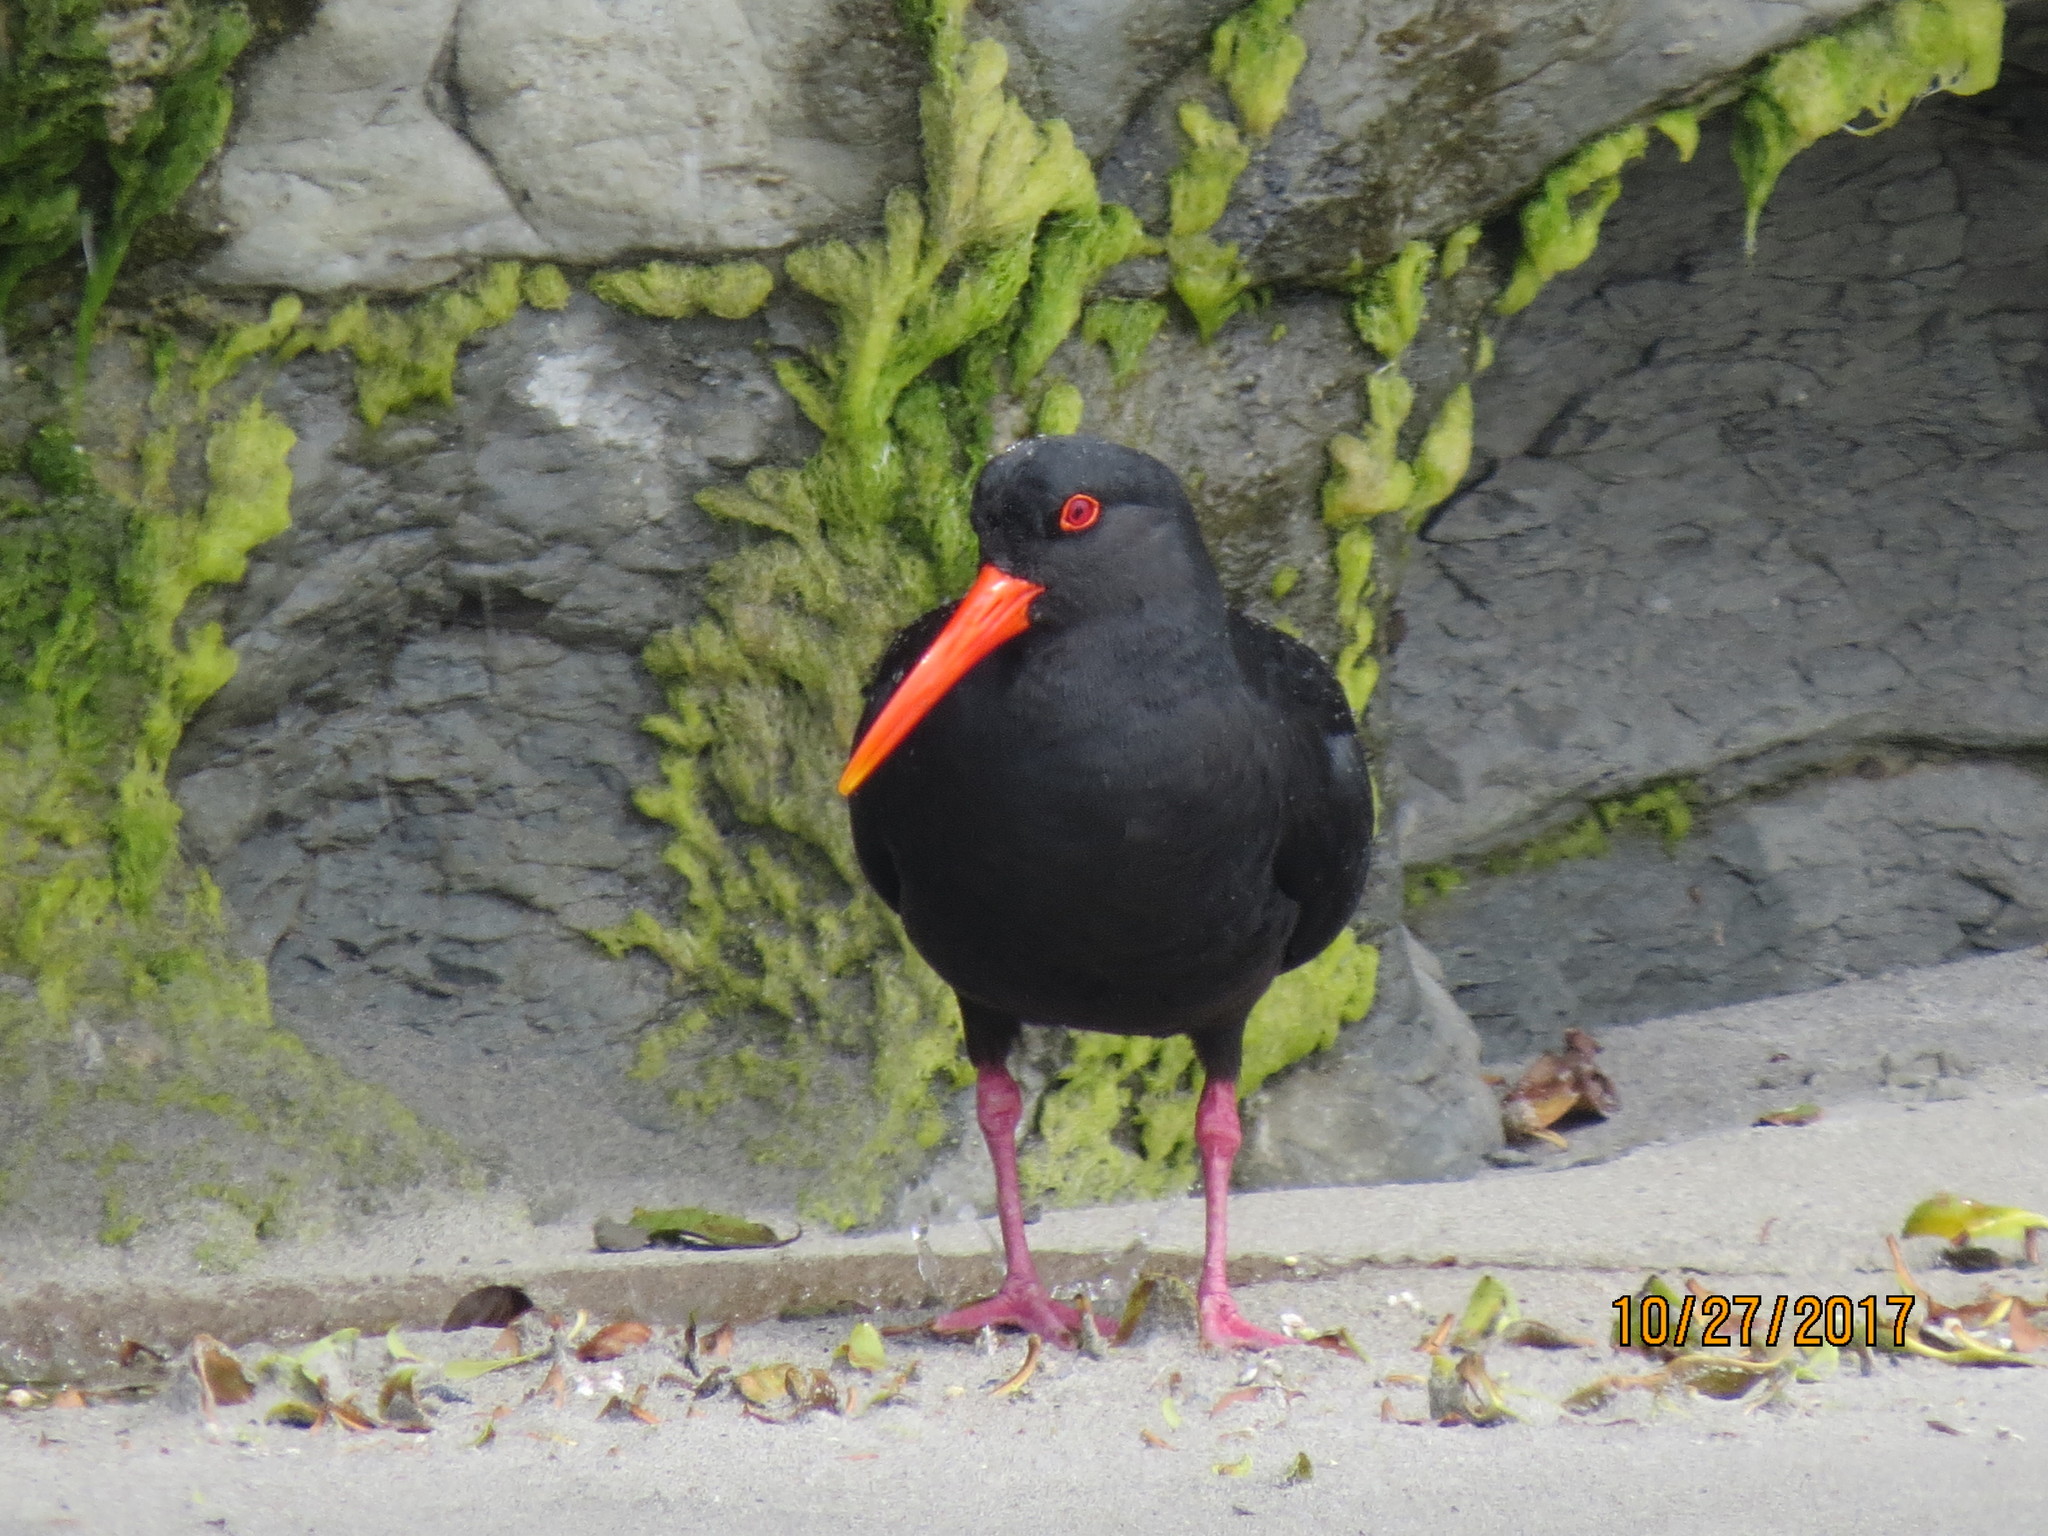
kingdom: Animalia
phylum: Chordata
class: Aves
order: Charadriiformes
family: Haematopodidae
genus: Haematopus
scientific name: Haematopus unicolor
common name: Variable oystercatcher
